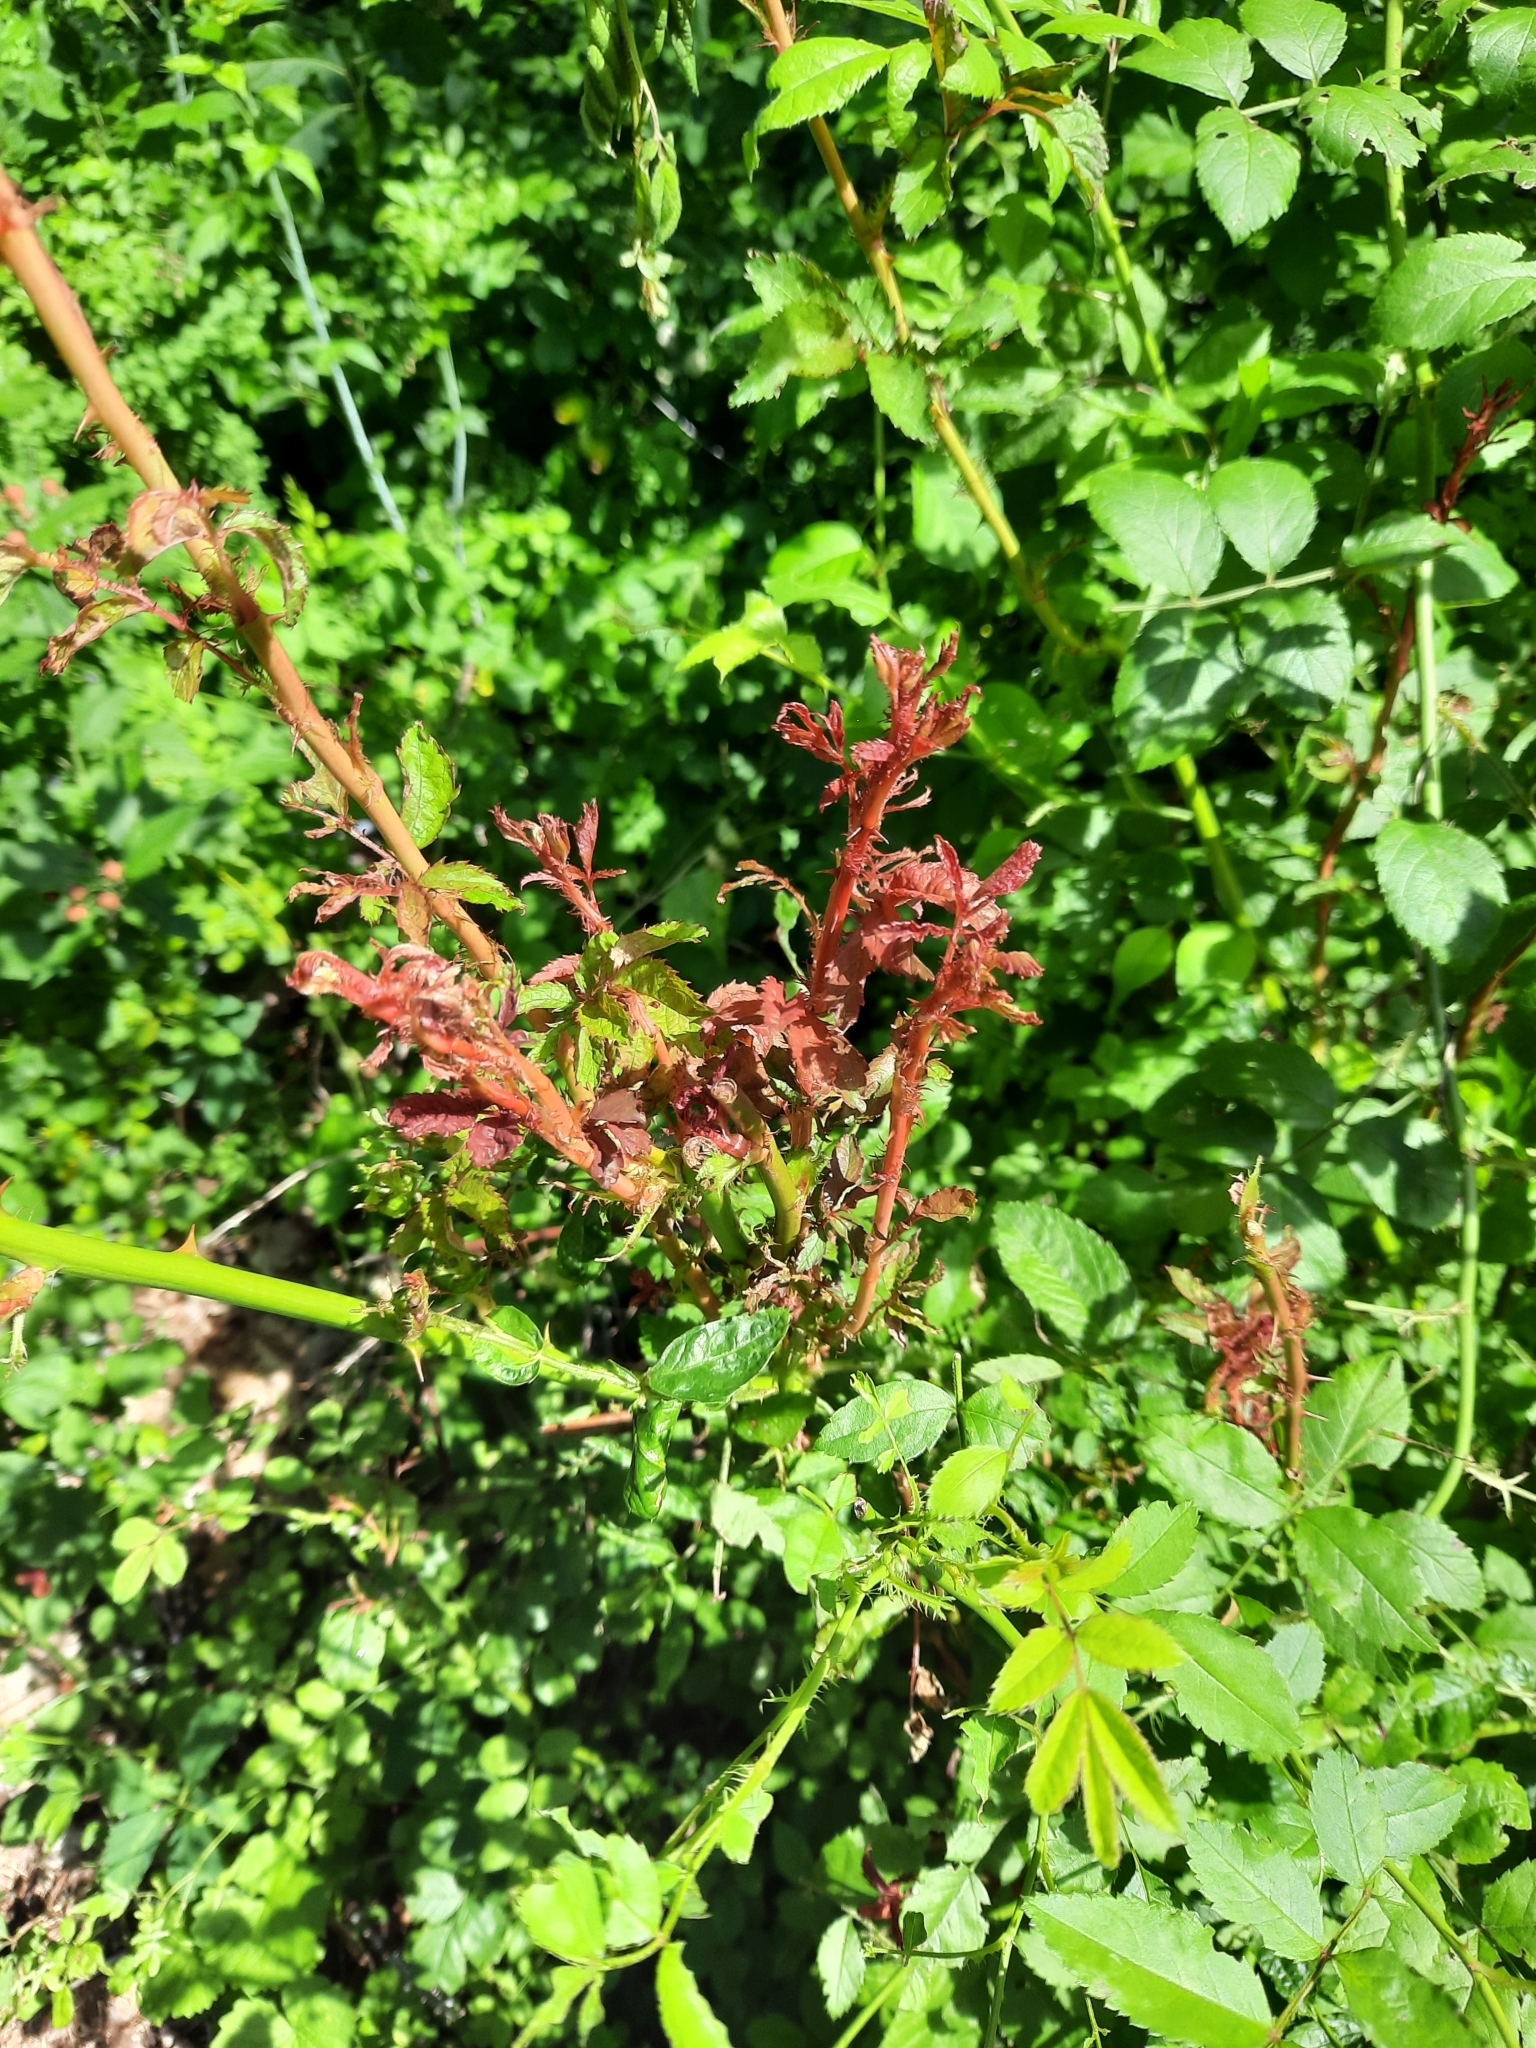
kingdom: Viruses
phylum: Negarnaviricota
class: Ellioviricetes
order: Bunyavirales
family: Fimoviridae
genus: Emaravirus
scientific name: Emaravirus rosae
